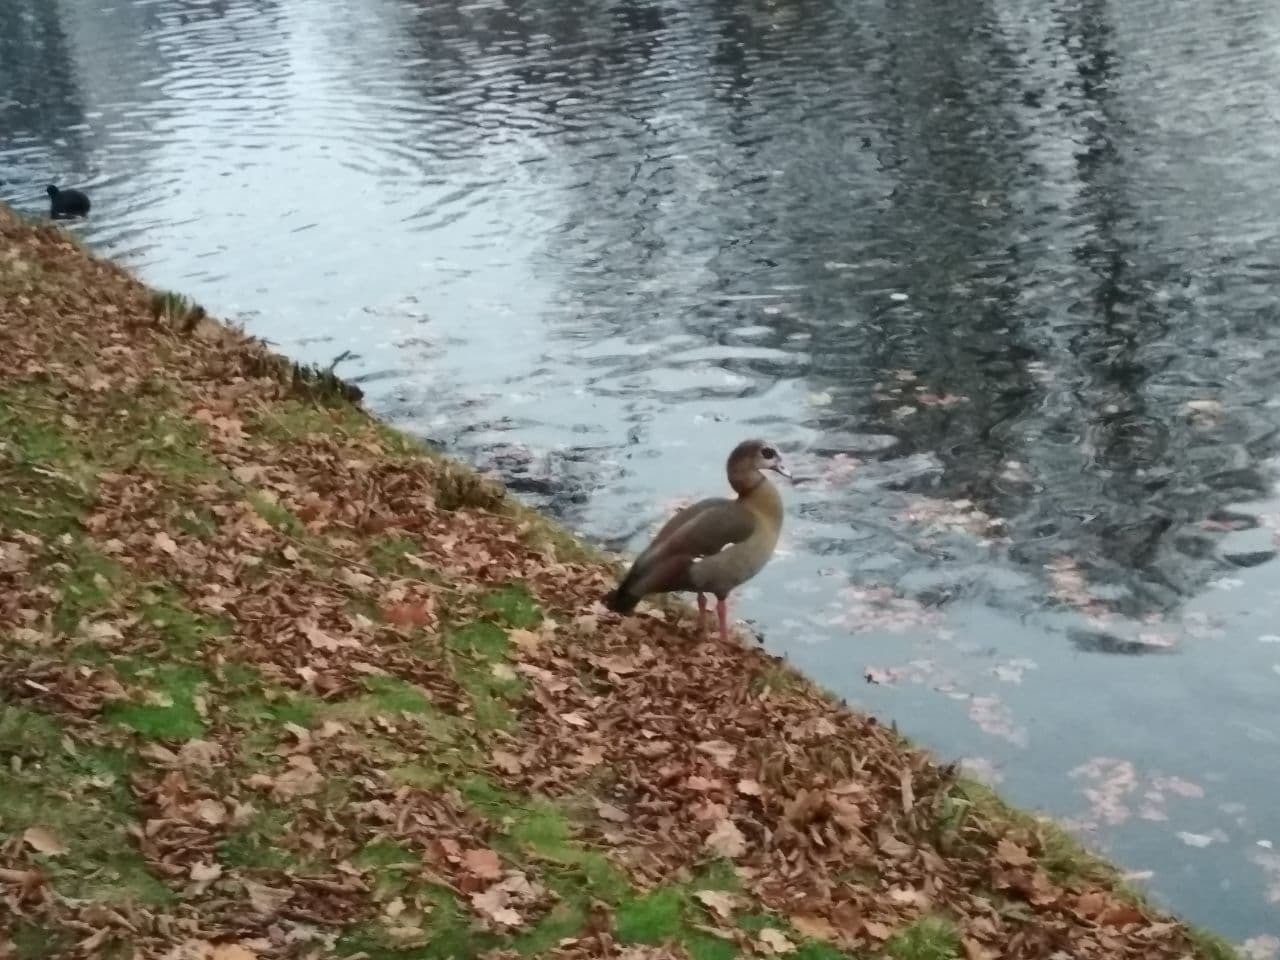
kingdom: Animalia
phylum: Chordata
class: Aves
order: Anseriformes
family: Anatidae
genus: Alopochen
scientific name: Alopochen aegyptiaca
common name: Egyptian goose
